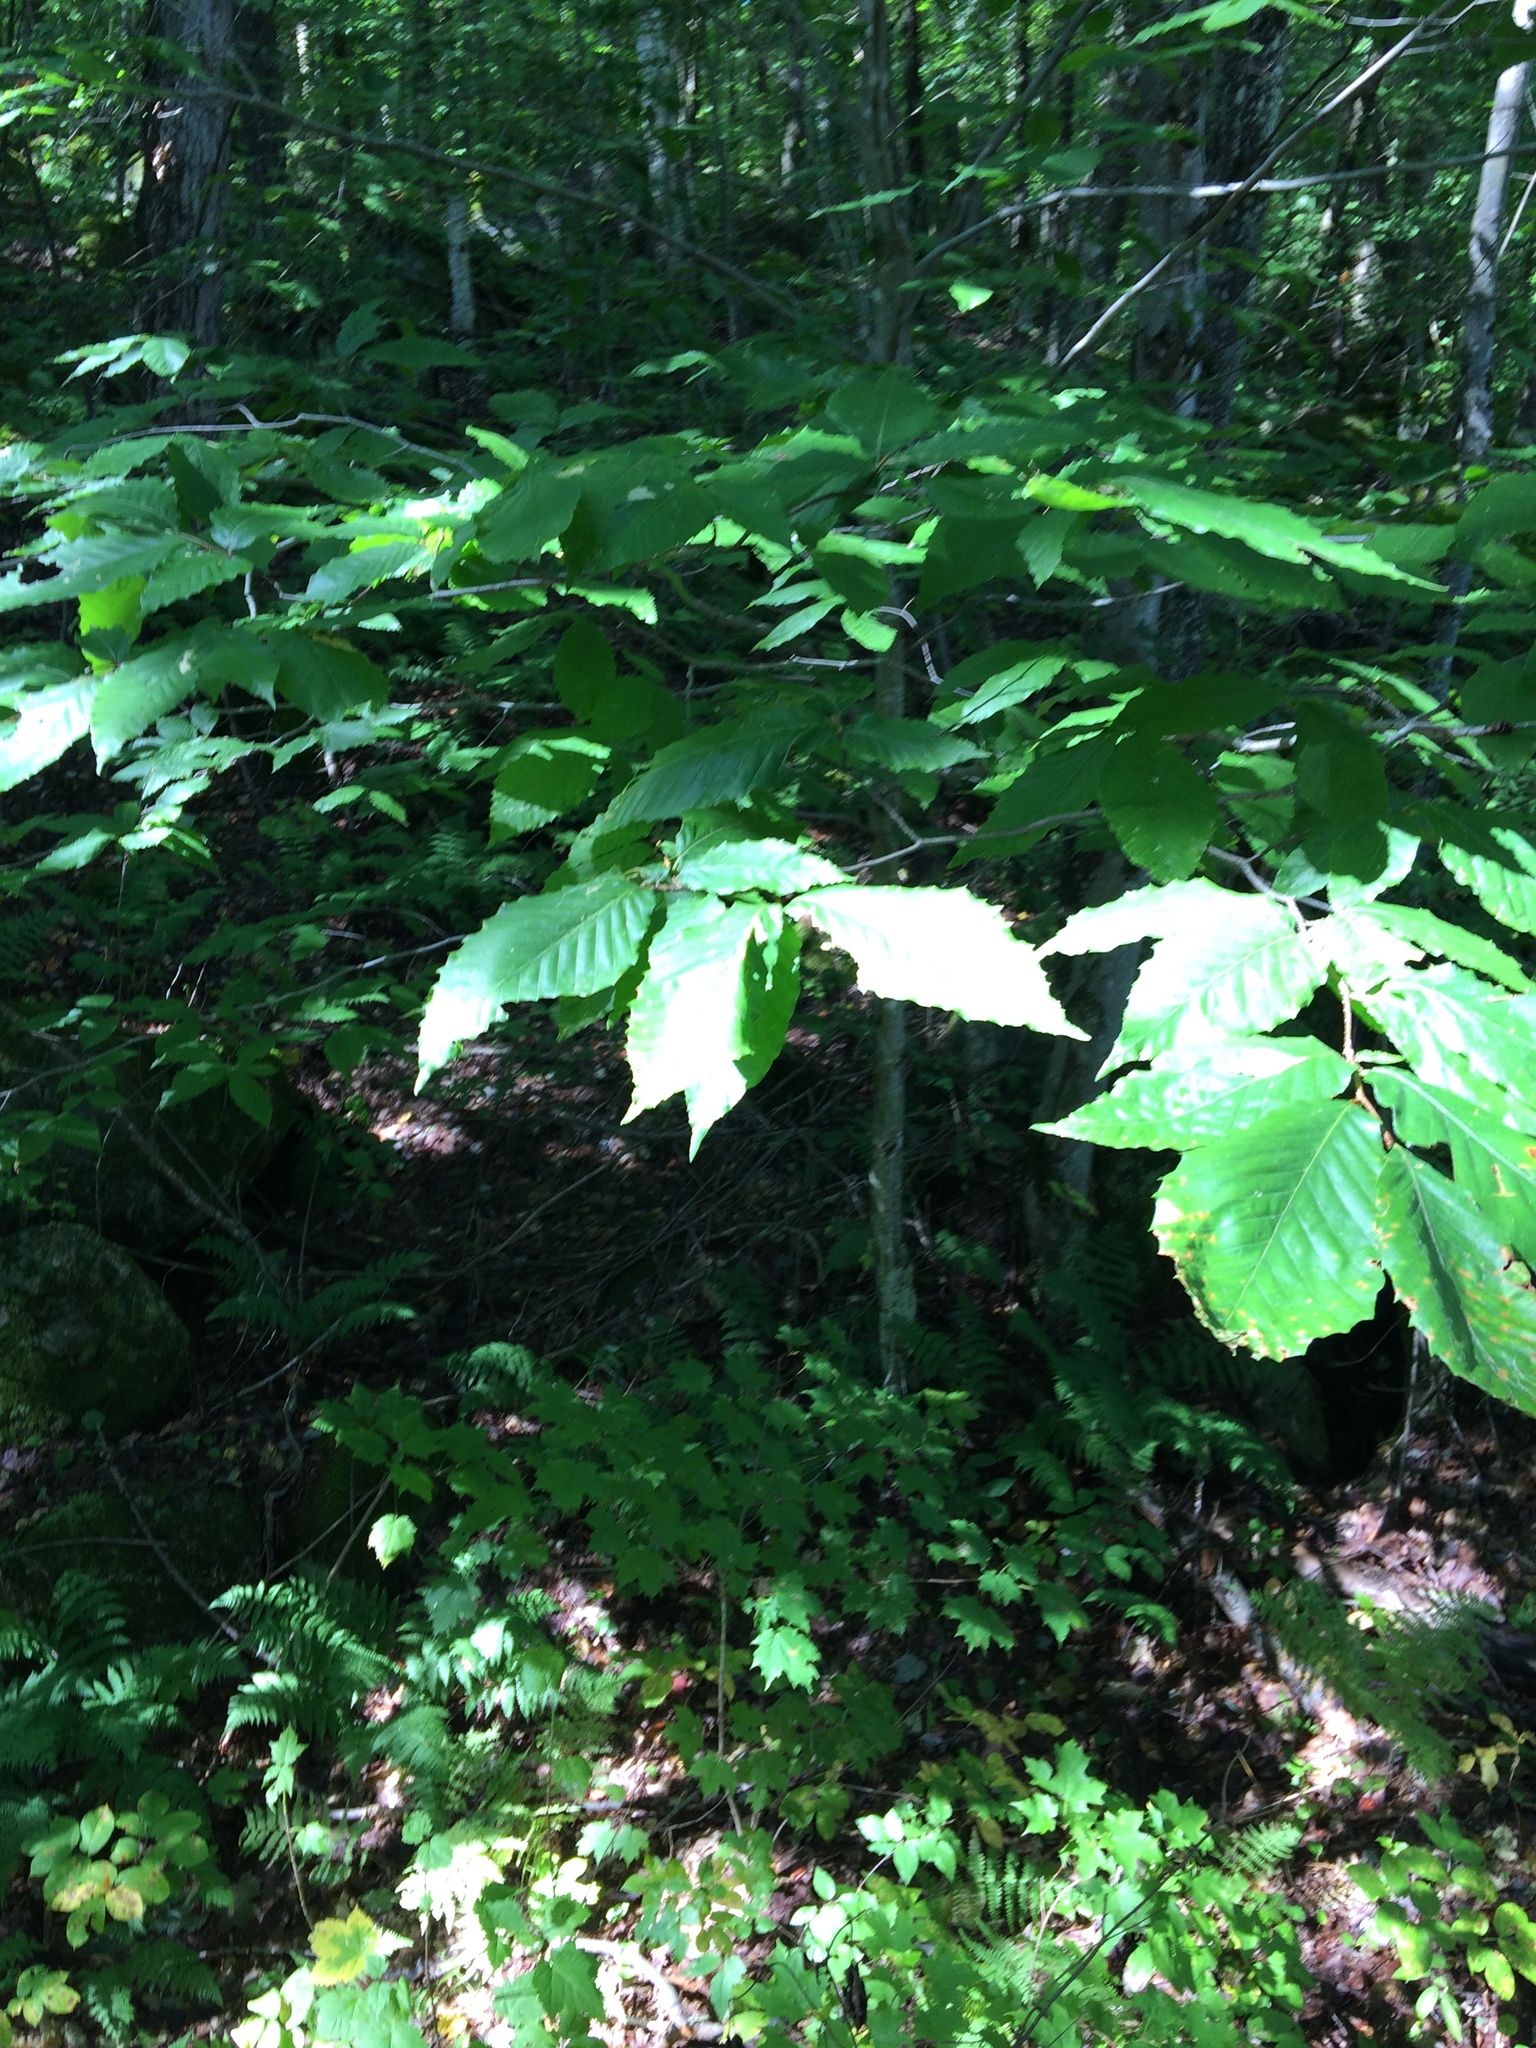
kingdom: Plantae
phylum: Tracheophyta
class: Magnoliopsida
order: Fagales
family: Fagaceae
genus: Fagus
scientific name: Fagus grandifolia
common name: American beech
